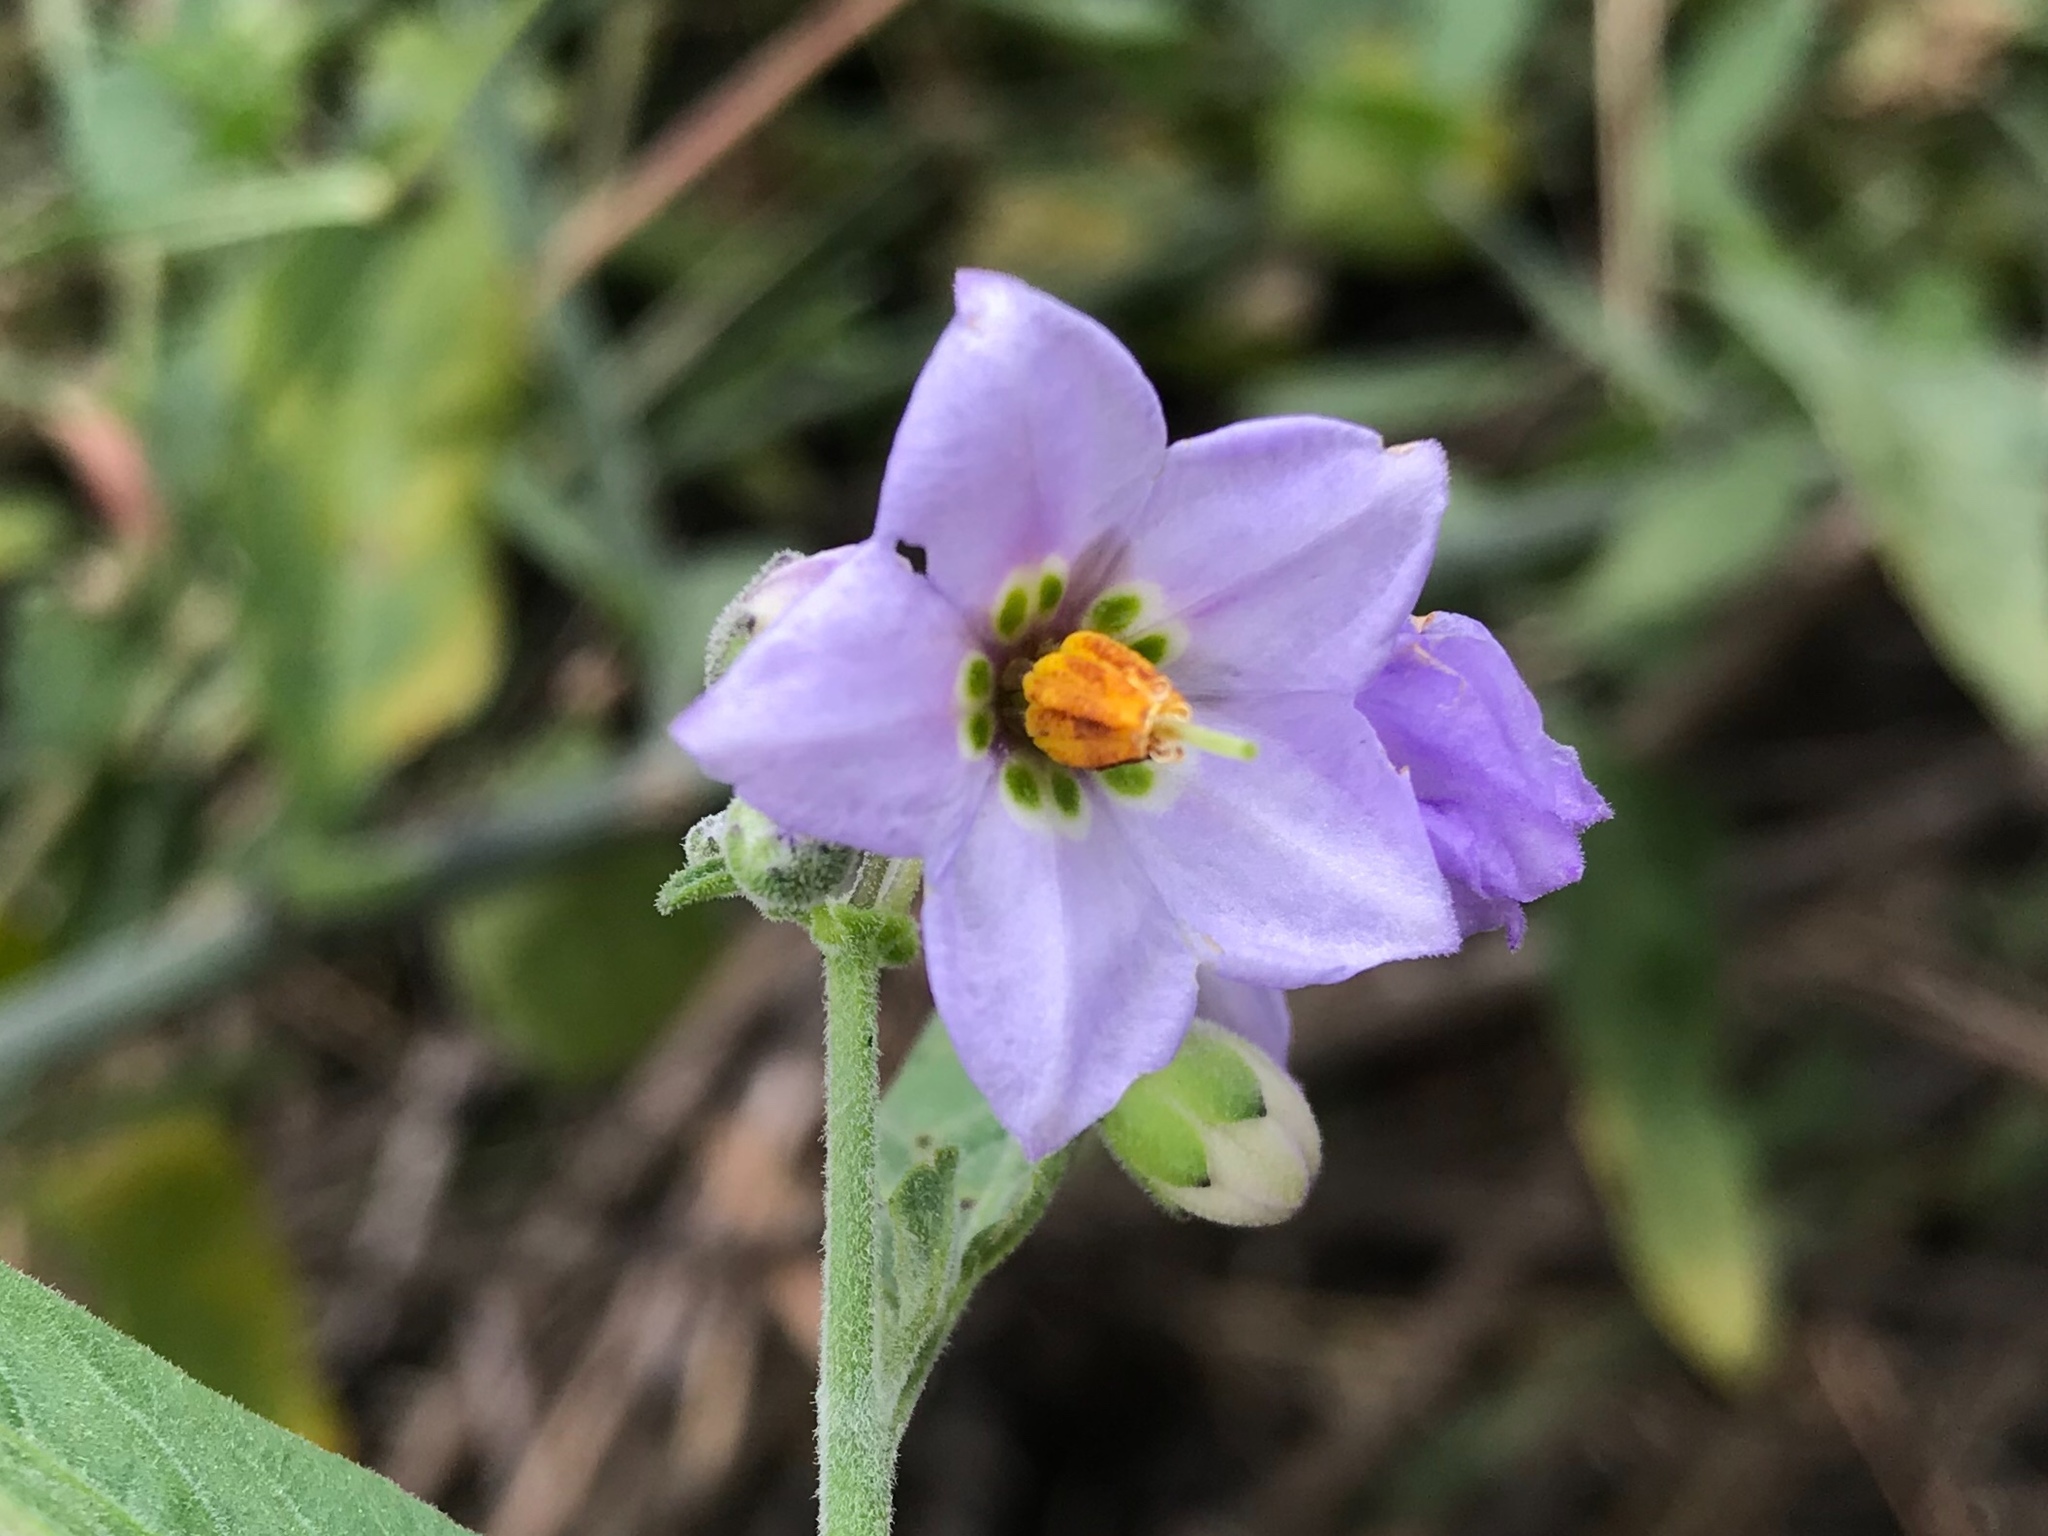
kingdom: Plantae
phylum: Tracheophyta
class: Magnoliopsida
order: Solanales
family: Solanaceae
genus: Solanum
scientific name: Solanum umbelliferum
